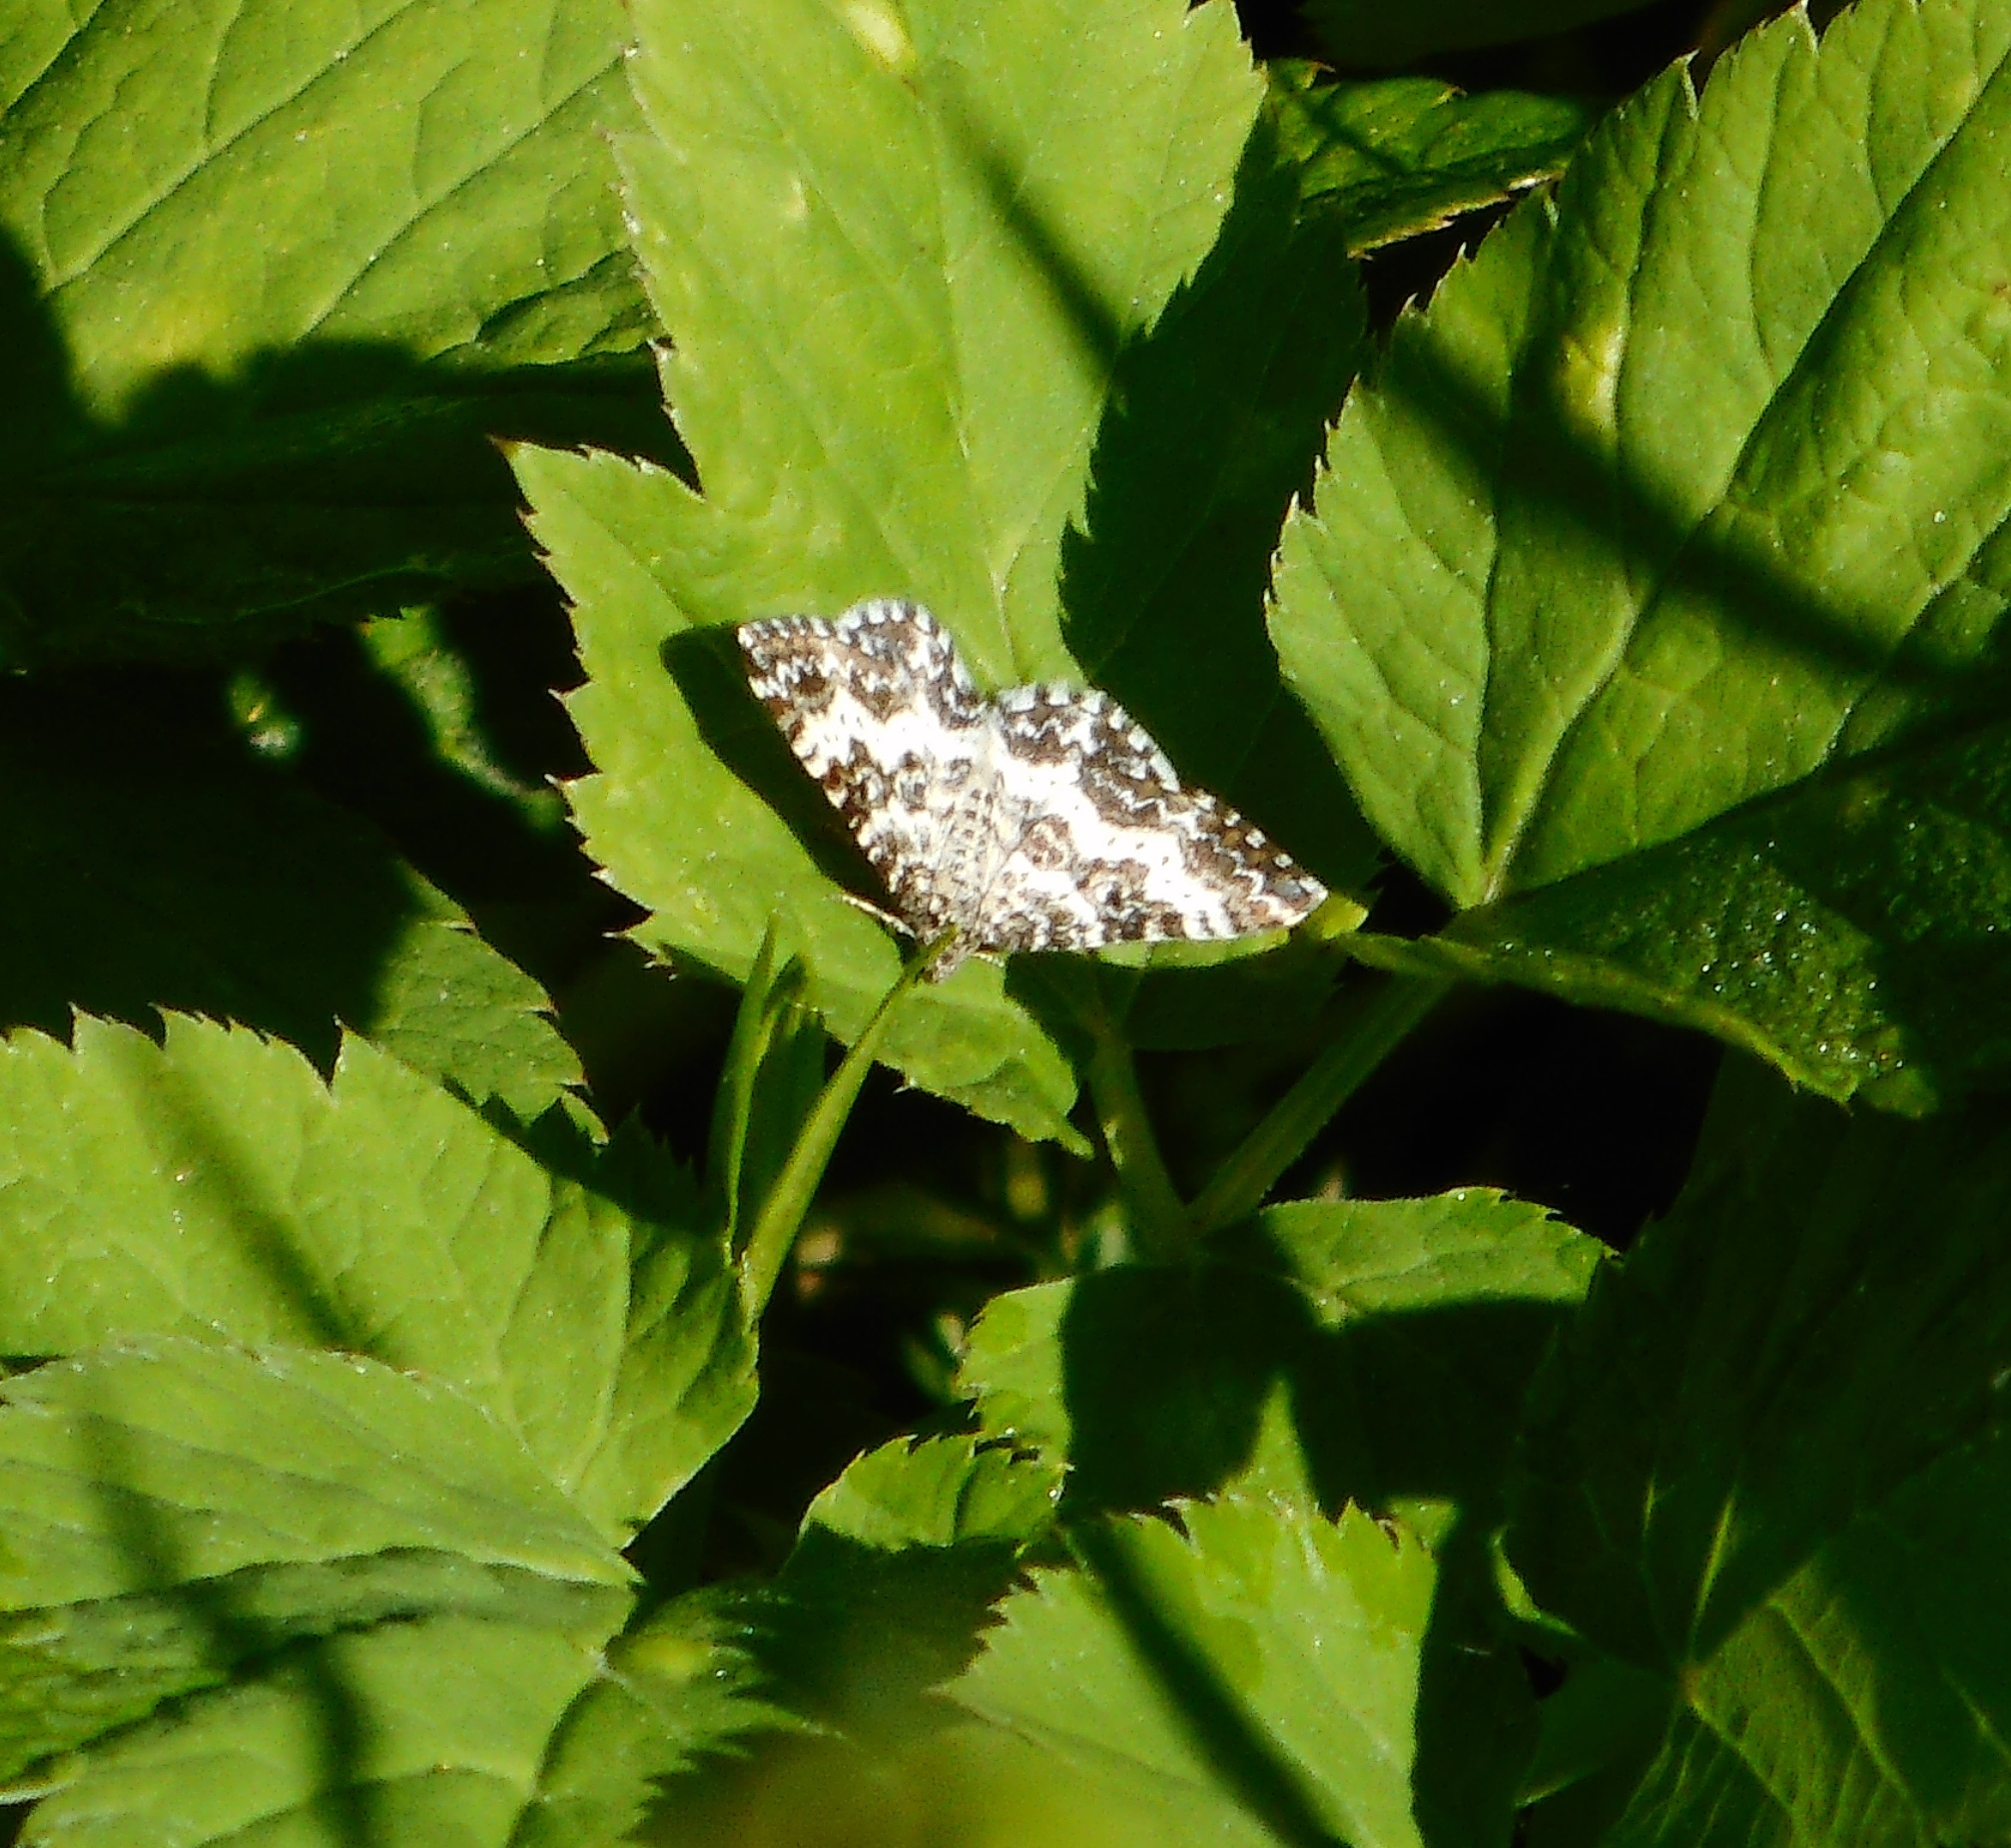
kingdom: Animalia
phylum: Arthropoda
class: Insecta
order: Lepidoptera
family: Geometridae
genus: Epirrhoe
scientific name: Epirrhoe tristata
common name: Small argent & sable
